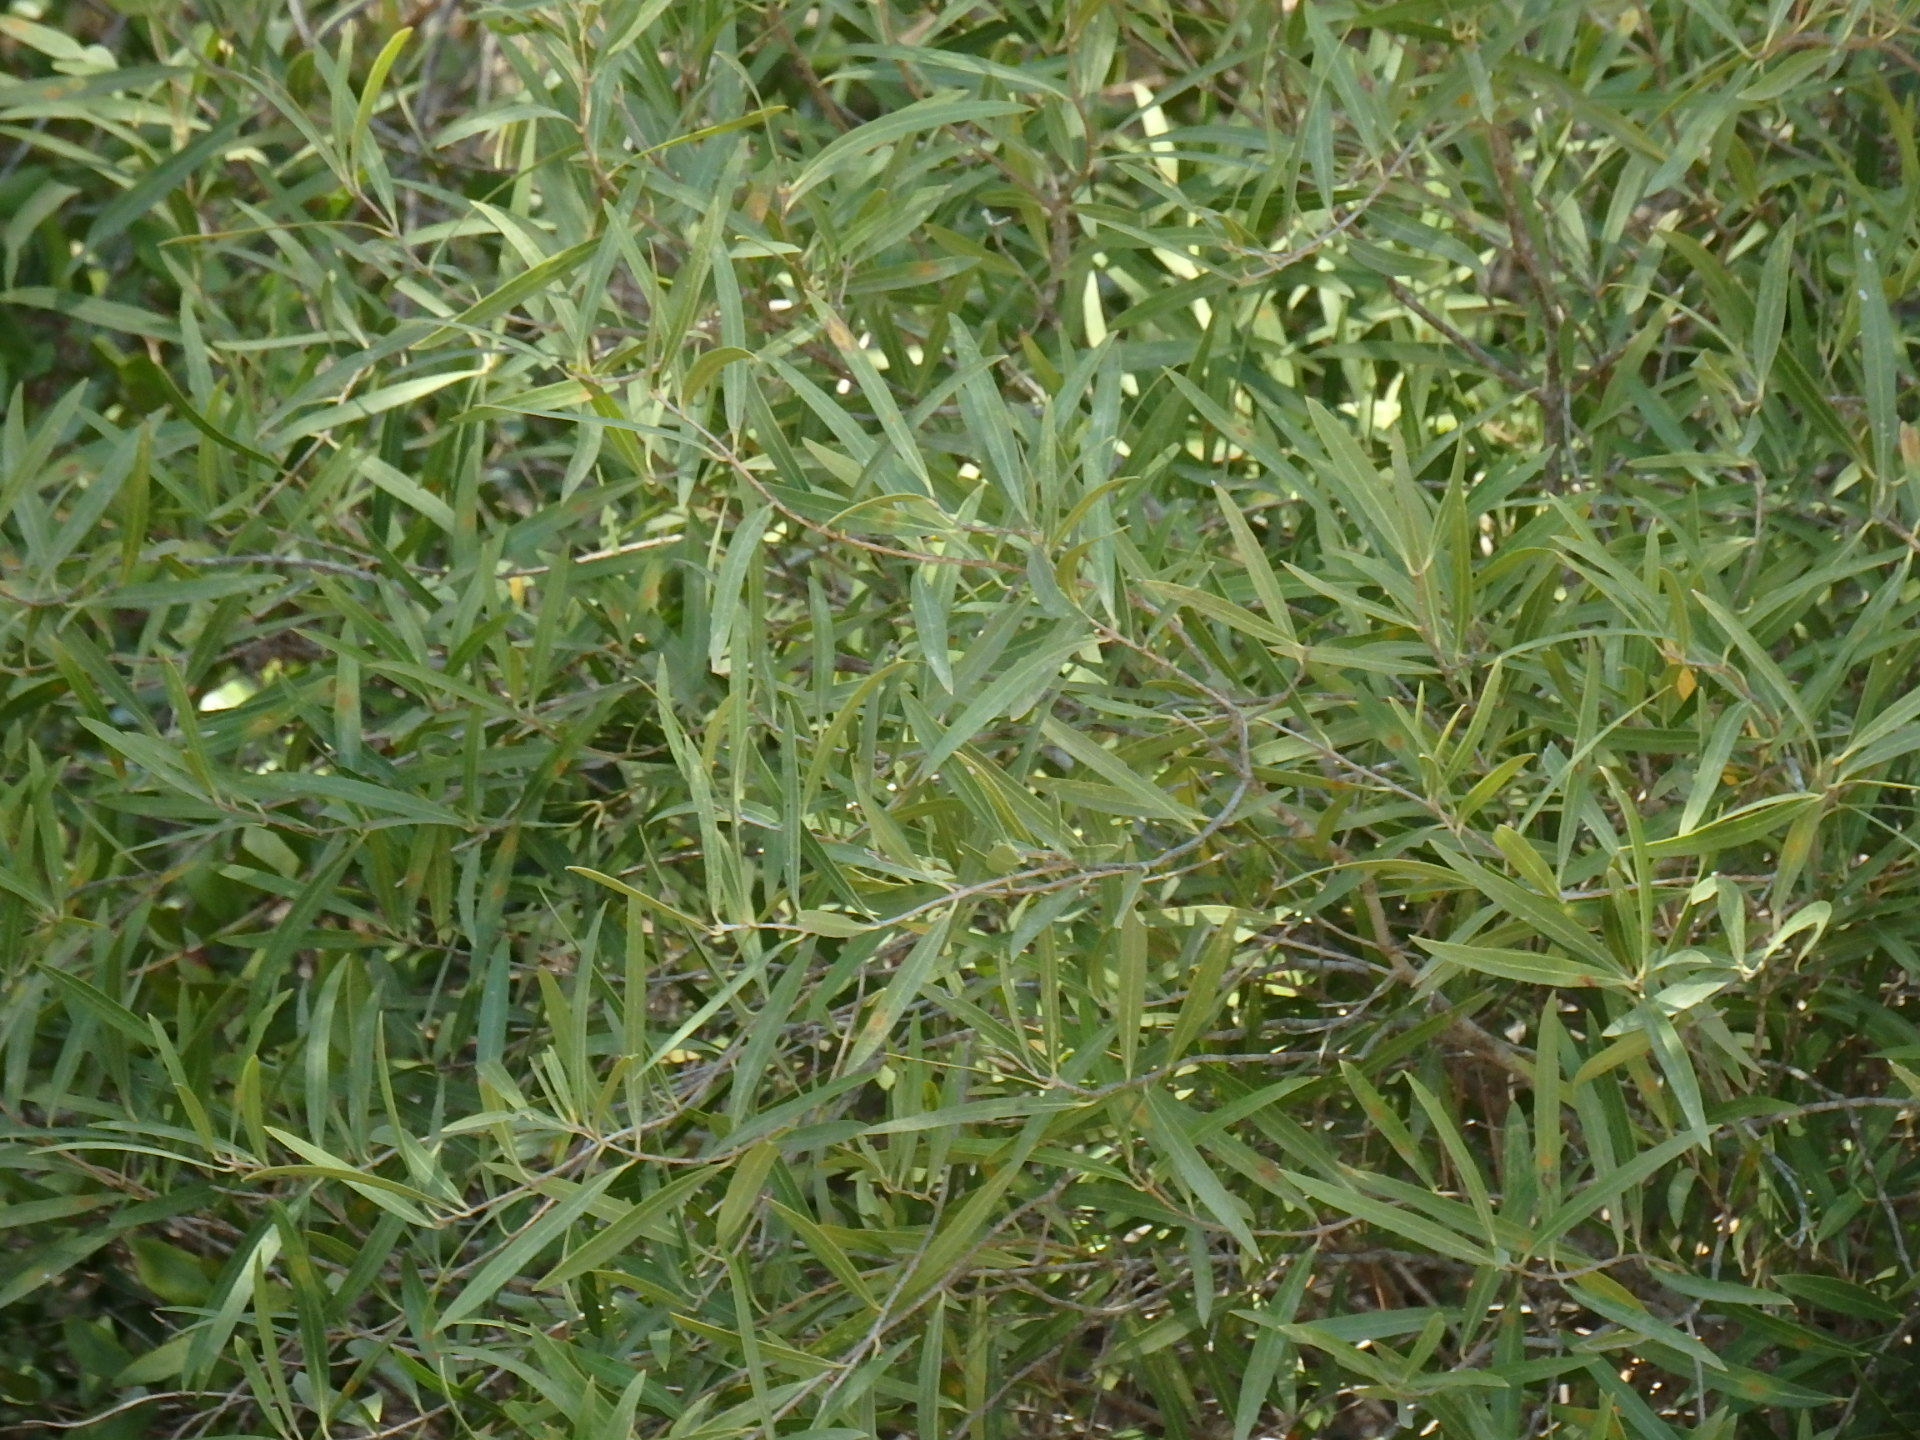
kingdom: Plantae
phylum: Tracheophyta
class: Magnoliopsida
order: Lamiales
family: Oleaceae
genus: Phillyrea
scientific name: Phillyrea angustifolia
